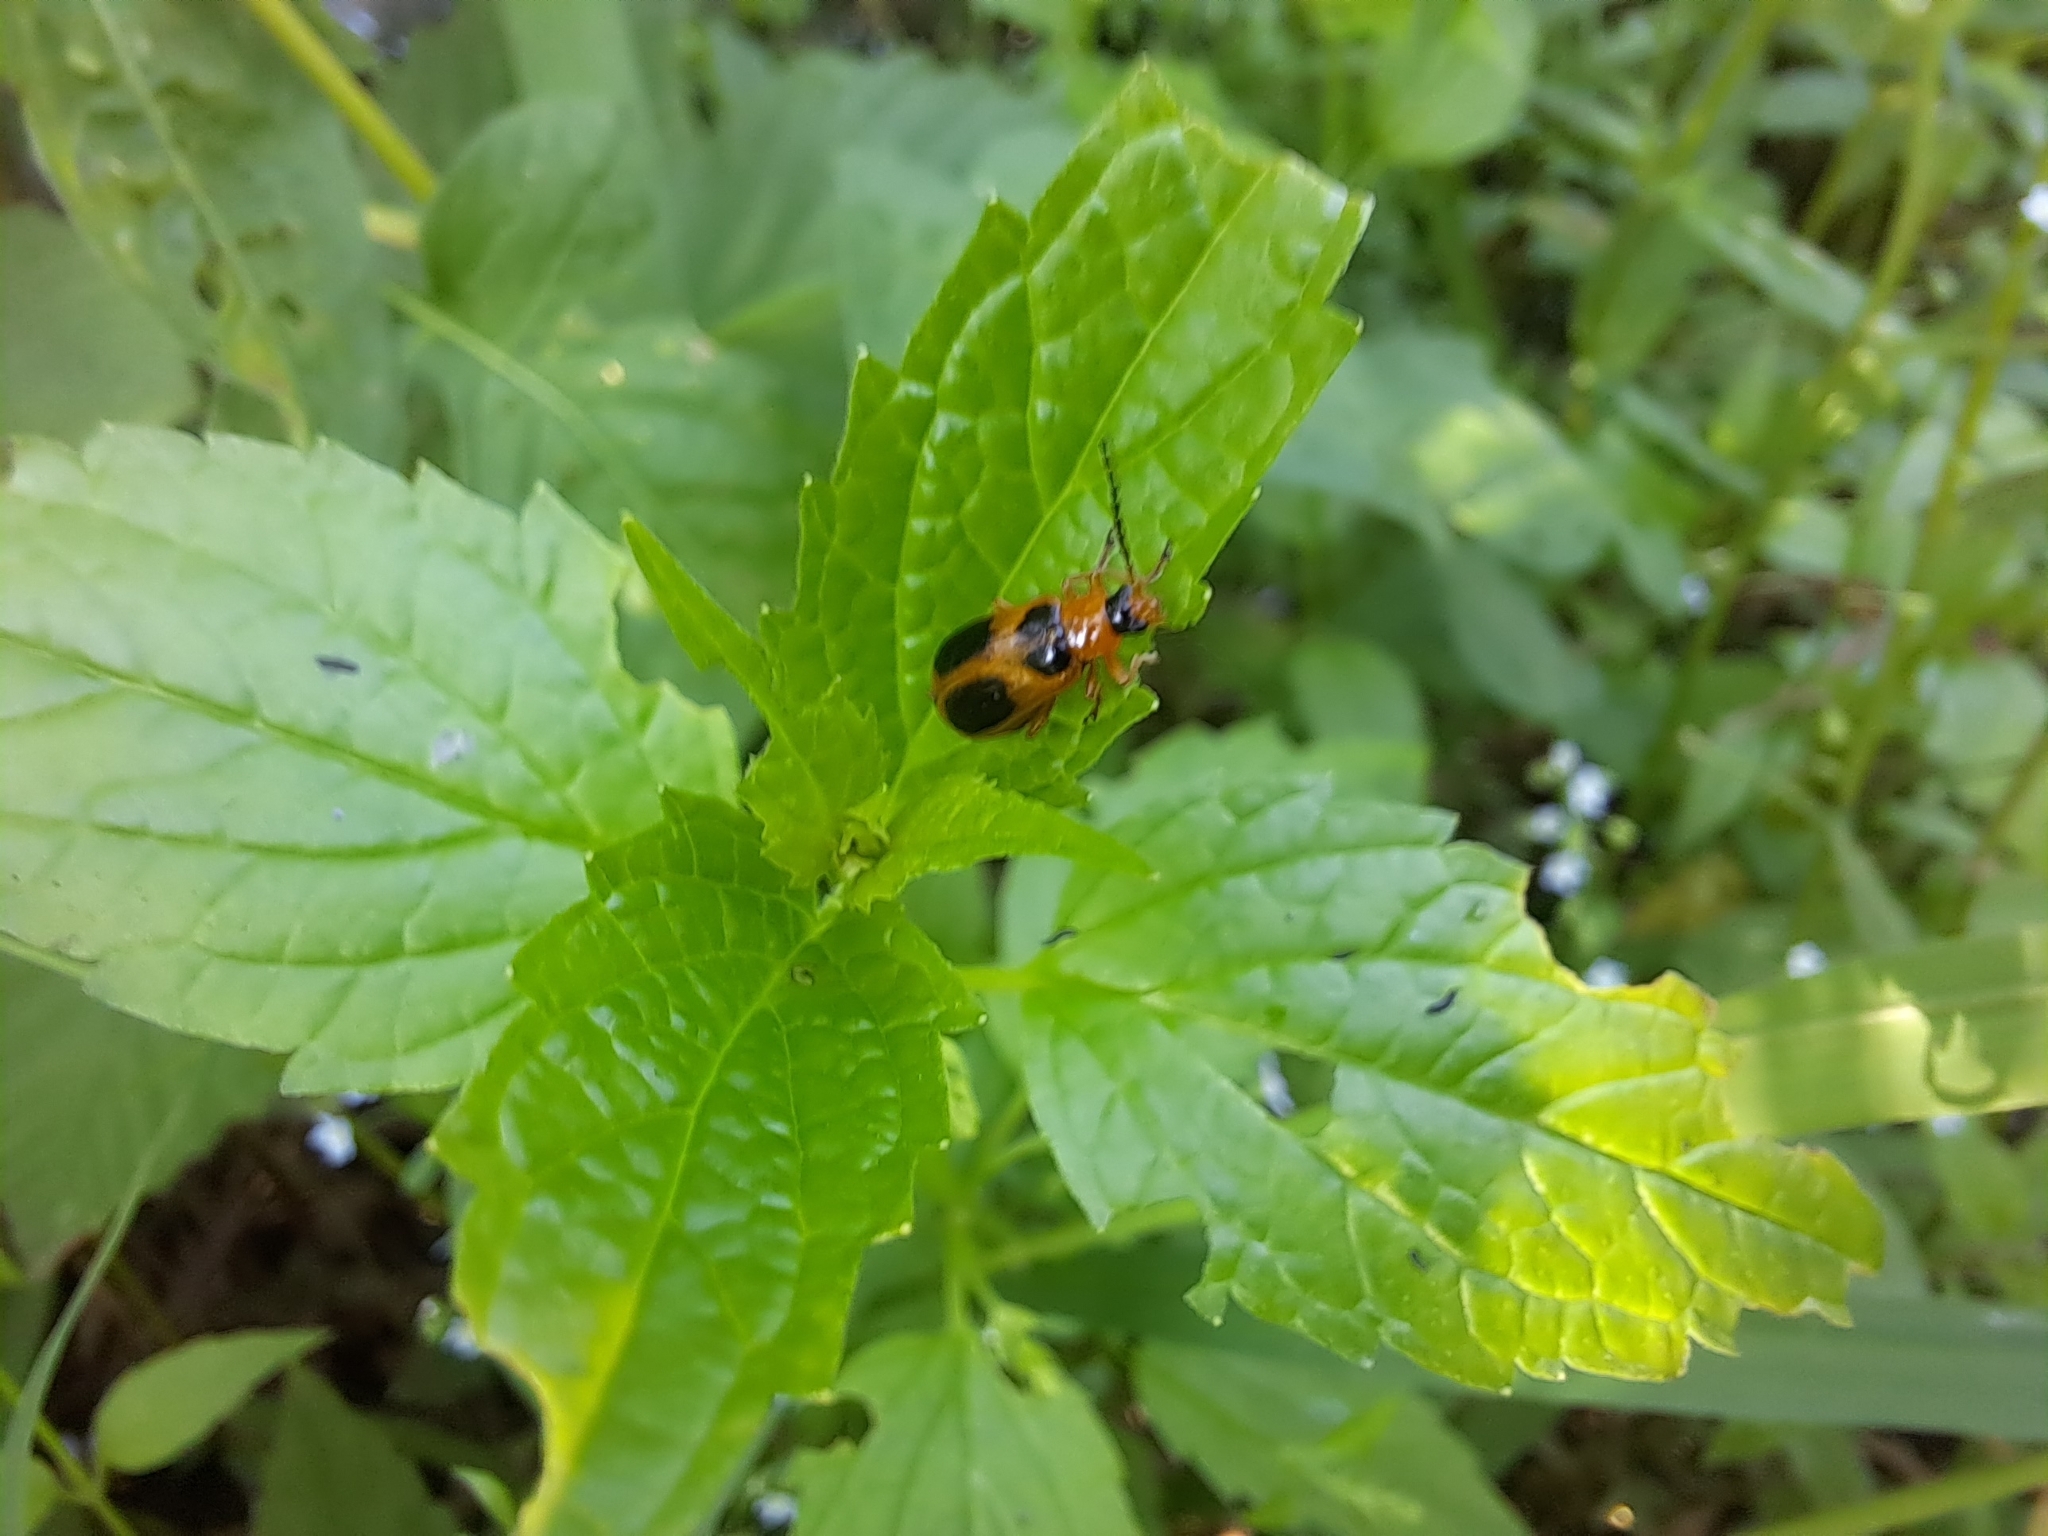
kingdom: Animalia
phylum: Arthropoda
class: Insecta
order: Coleoptera
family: Chrysomelidae
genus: Phyllobrotica
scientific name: Phyllobrotica decorata
